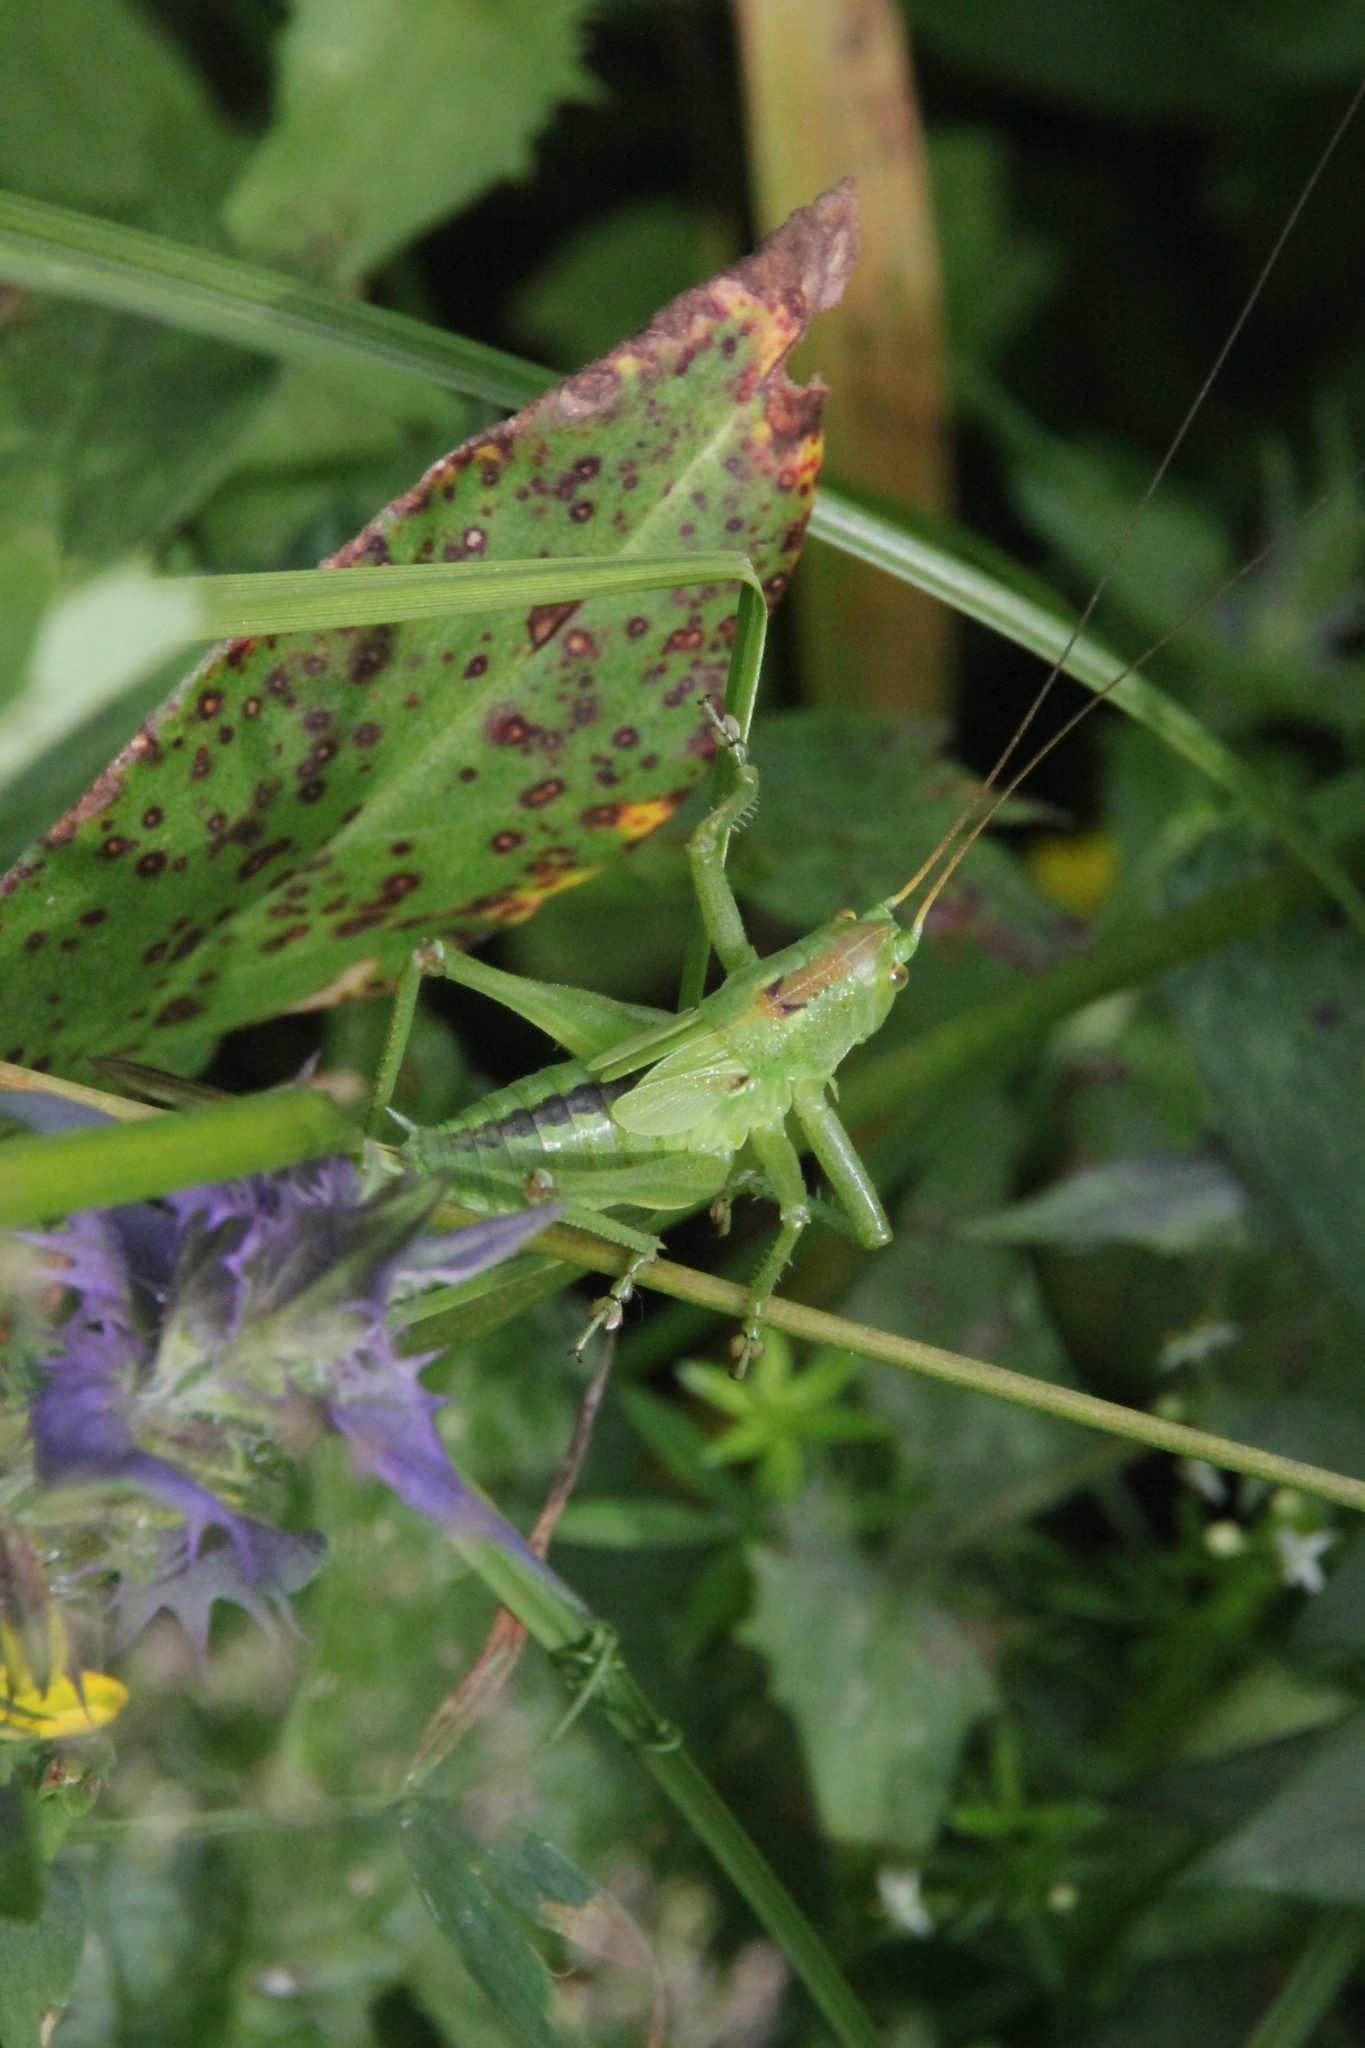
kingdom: Animalia
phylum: Arthropoda
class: Insecta
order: Orthoptera
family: Tettigoniidae
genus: Tettigonia
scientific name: Tettigonia cantans
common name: Upland green bush-cricket
